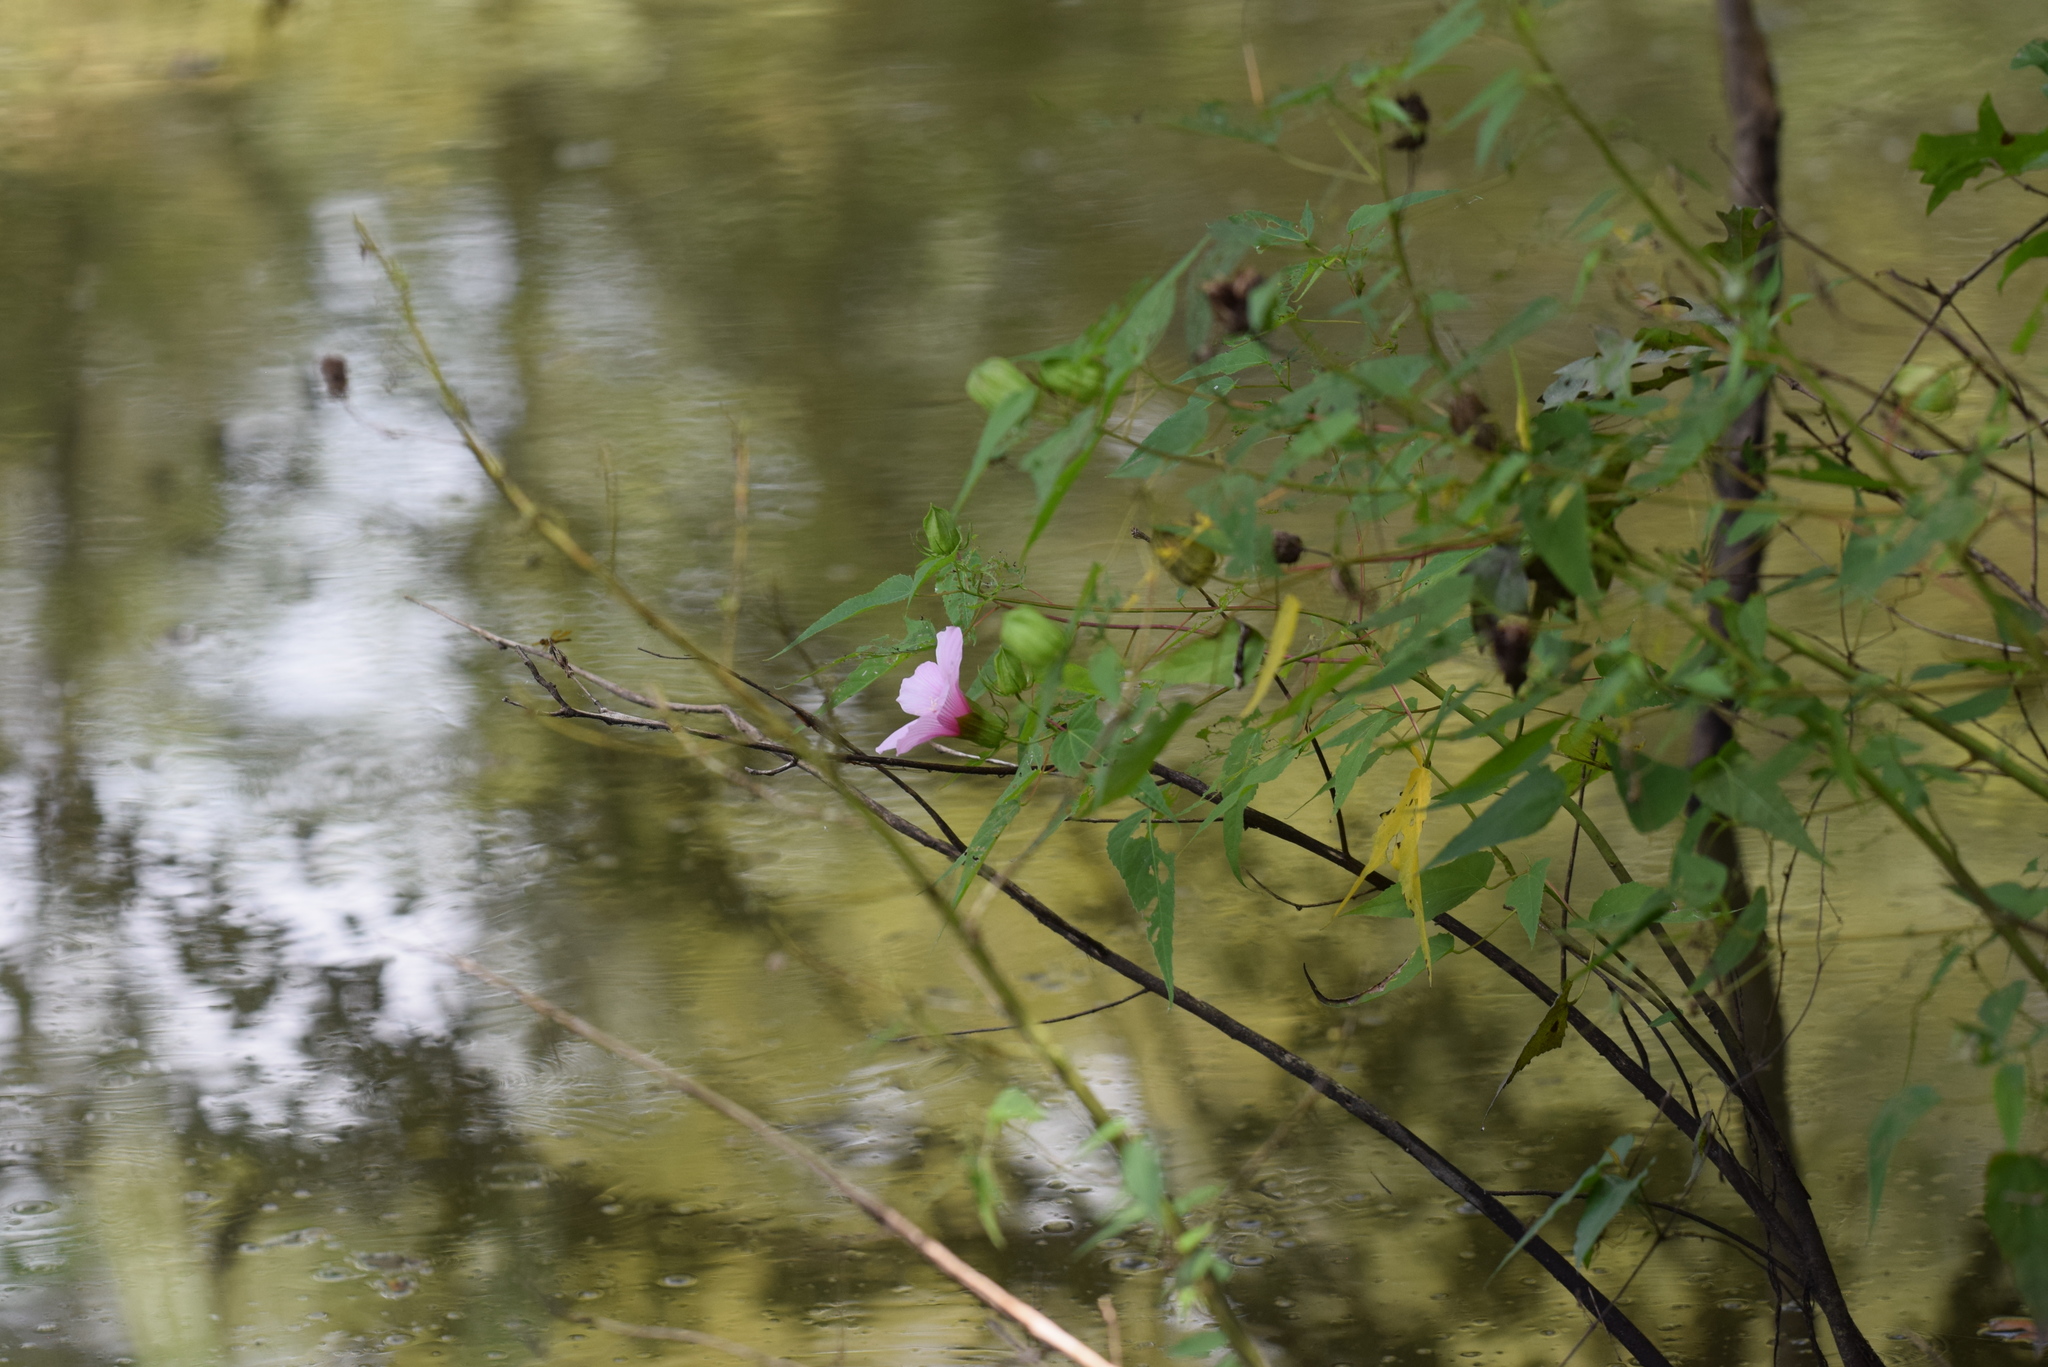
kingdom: Plantae
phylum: Tracheophyta
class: Magnoliopsida
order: Malvales
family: Malvaceae
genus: Hibiscus
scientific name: Hibiscus laevis
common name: Scarlet rose-mallow
